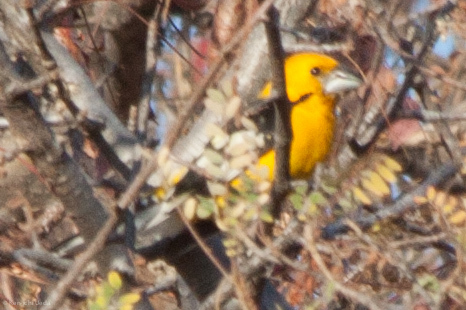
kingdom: Animalia
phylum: Chordata
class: Aves
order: Passeriformes
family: Cardinalidae
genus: Pheucticus
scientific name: Pheucticus chrysopeplus
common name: Yellow grosbeak
